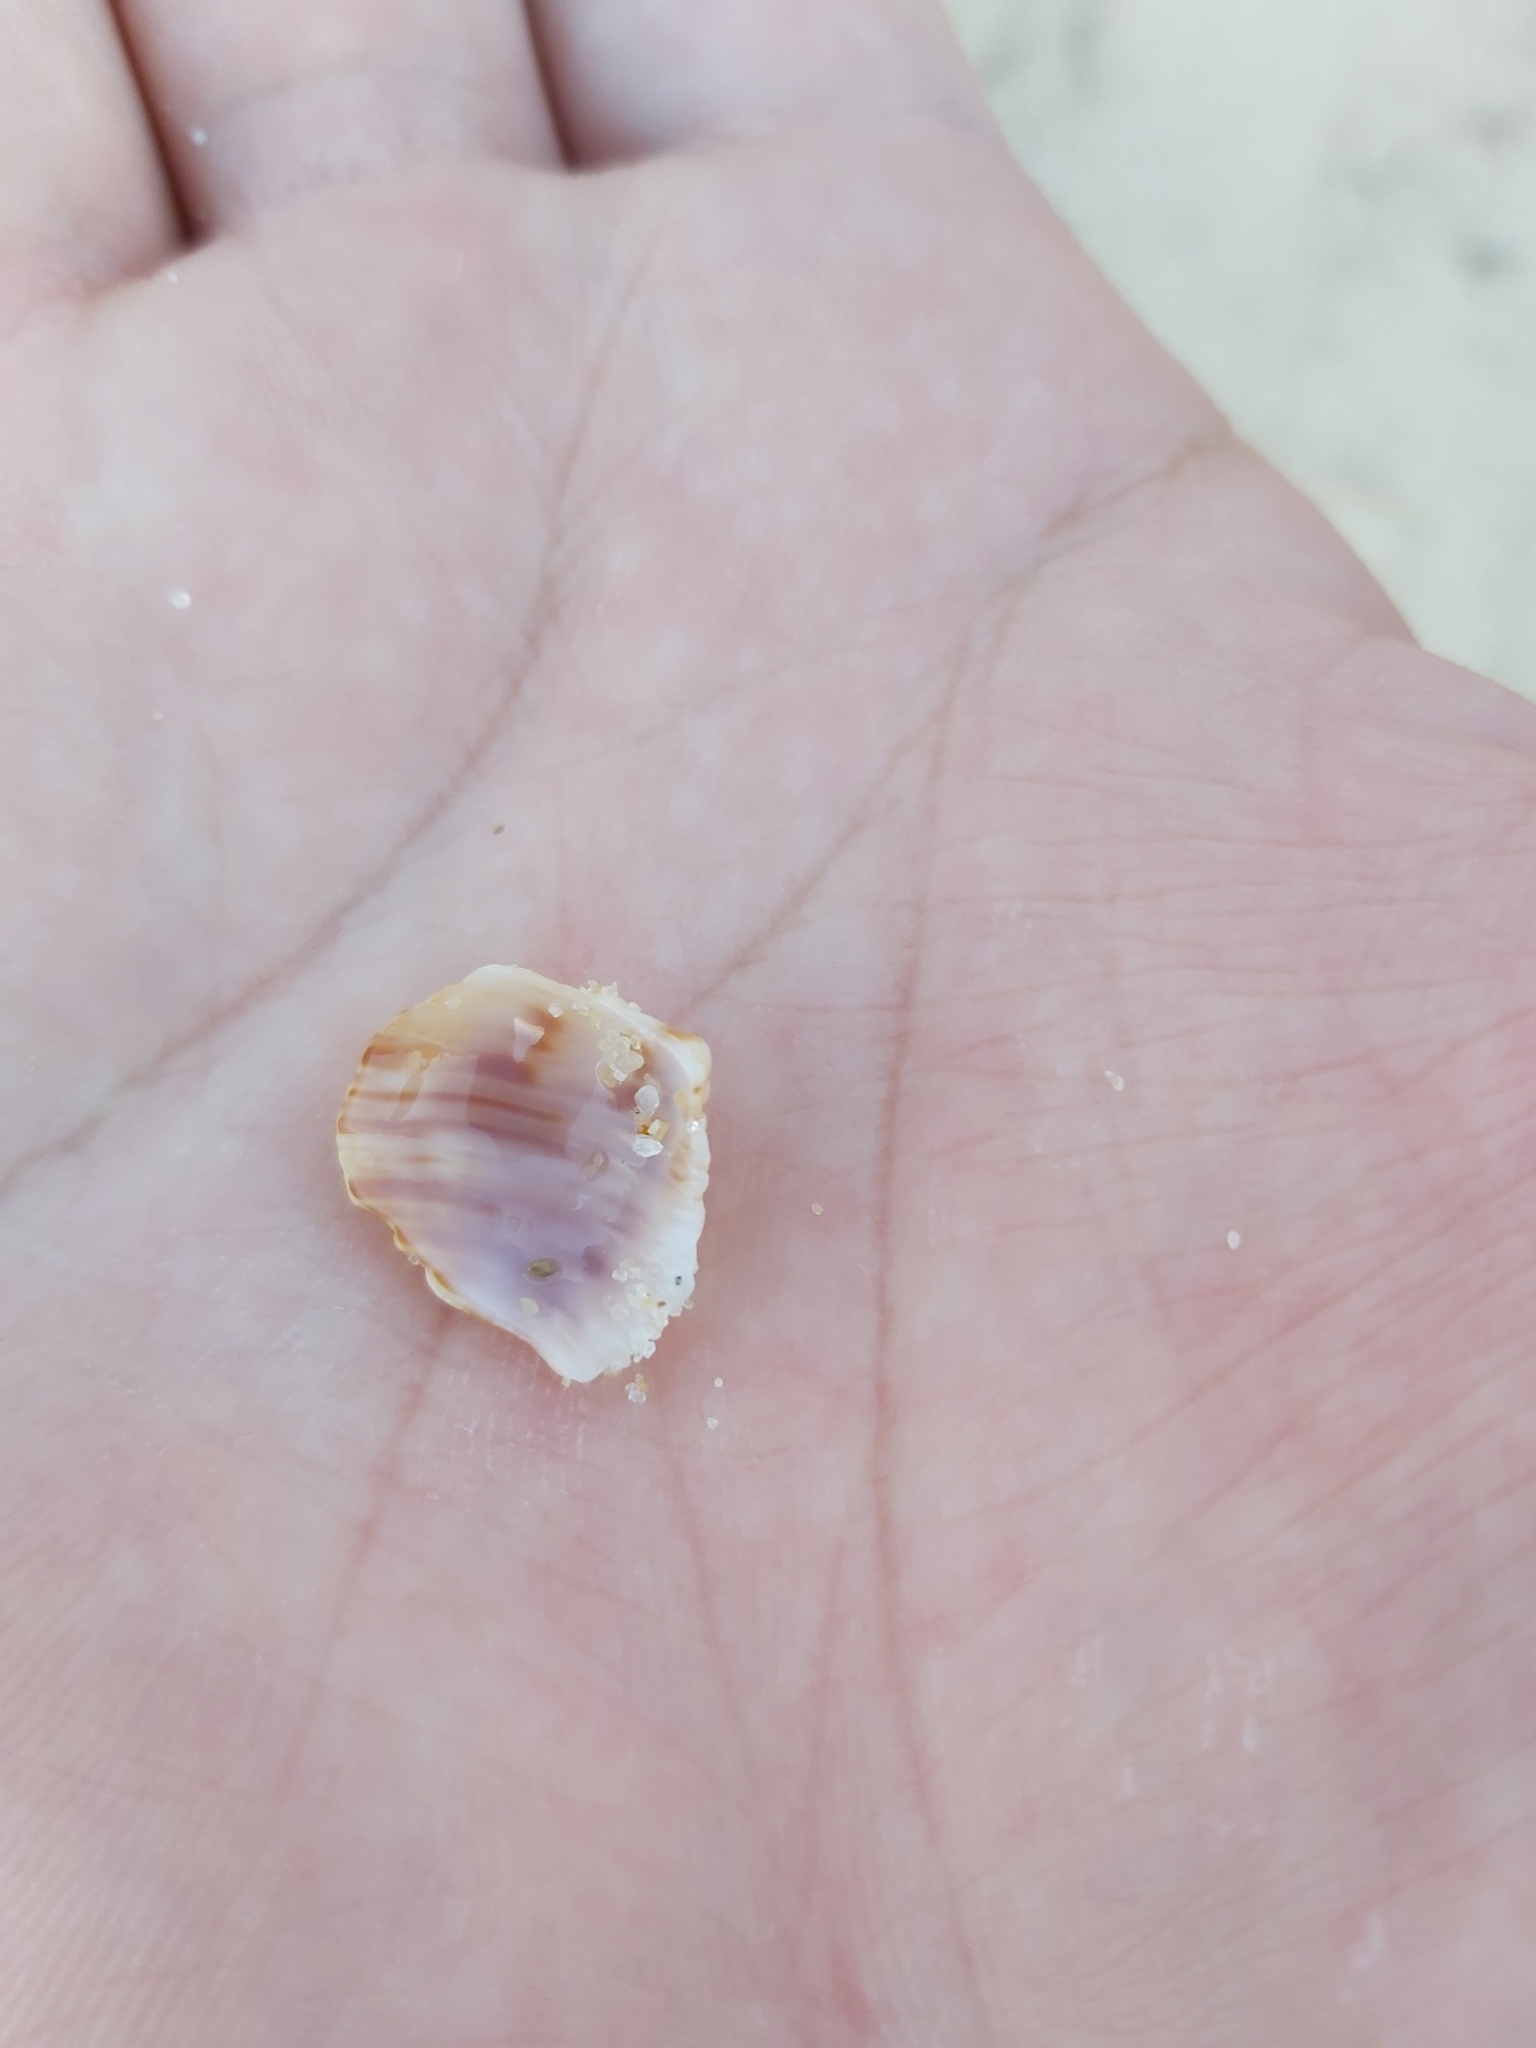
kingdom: Animalia
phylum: Mollusca
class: Gastropoda
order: Littorinimorpha
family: Cymatiidae
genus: Cabestana
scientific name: Cabestana spengleri
